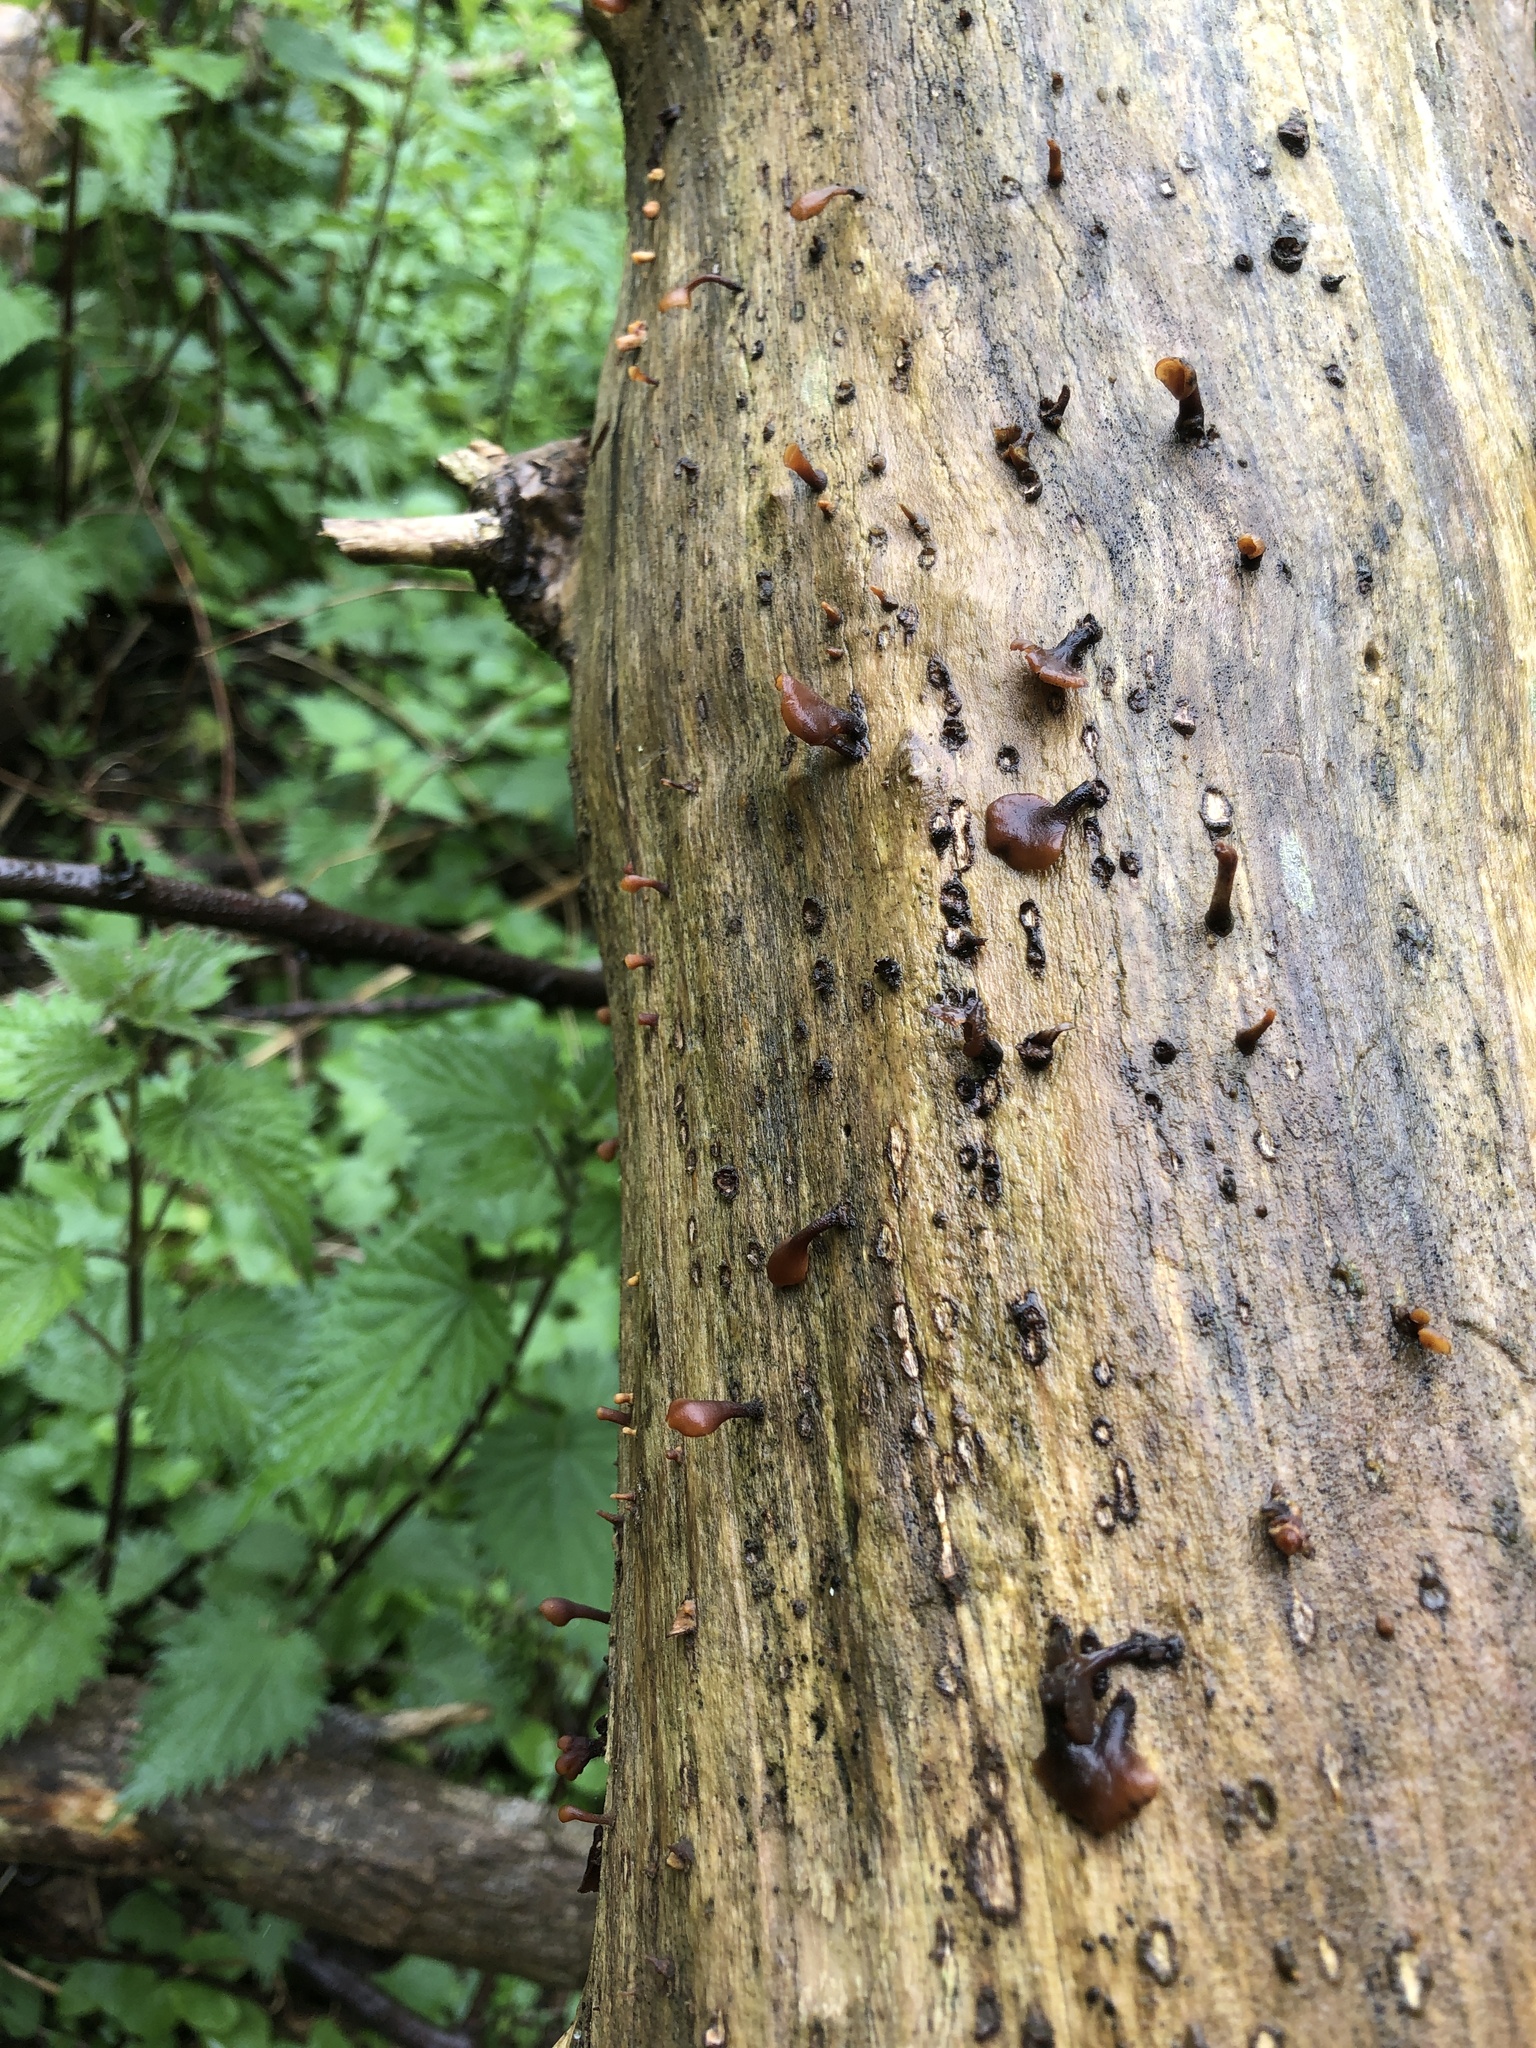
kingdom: Fungi
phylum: Basidiomycota
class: Dacrymycetes
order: Dacrymycetales
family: Dacrymycetaceae
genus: Dacryopinax
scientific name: Dacryopinax elegans
